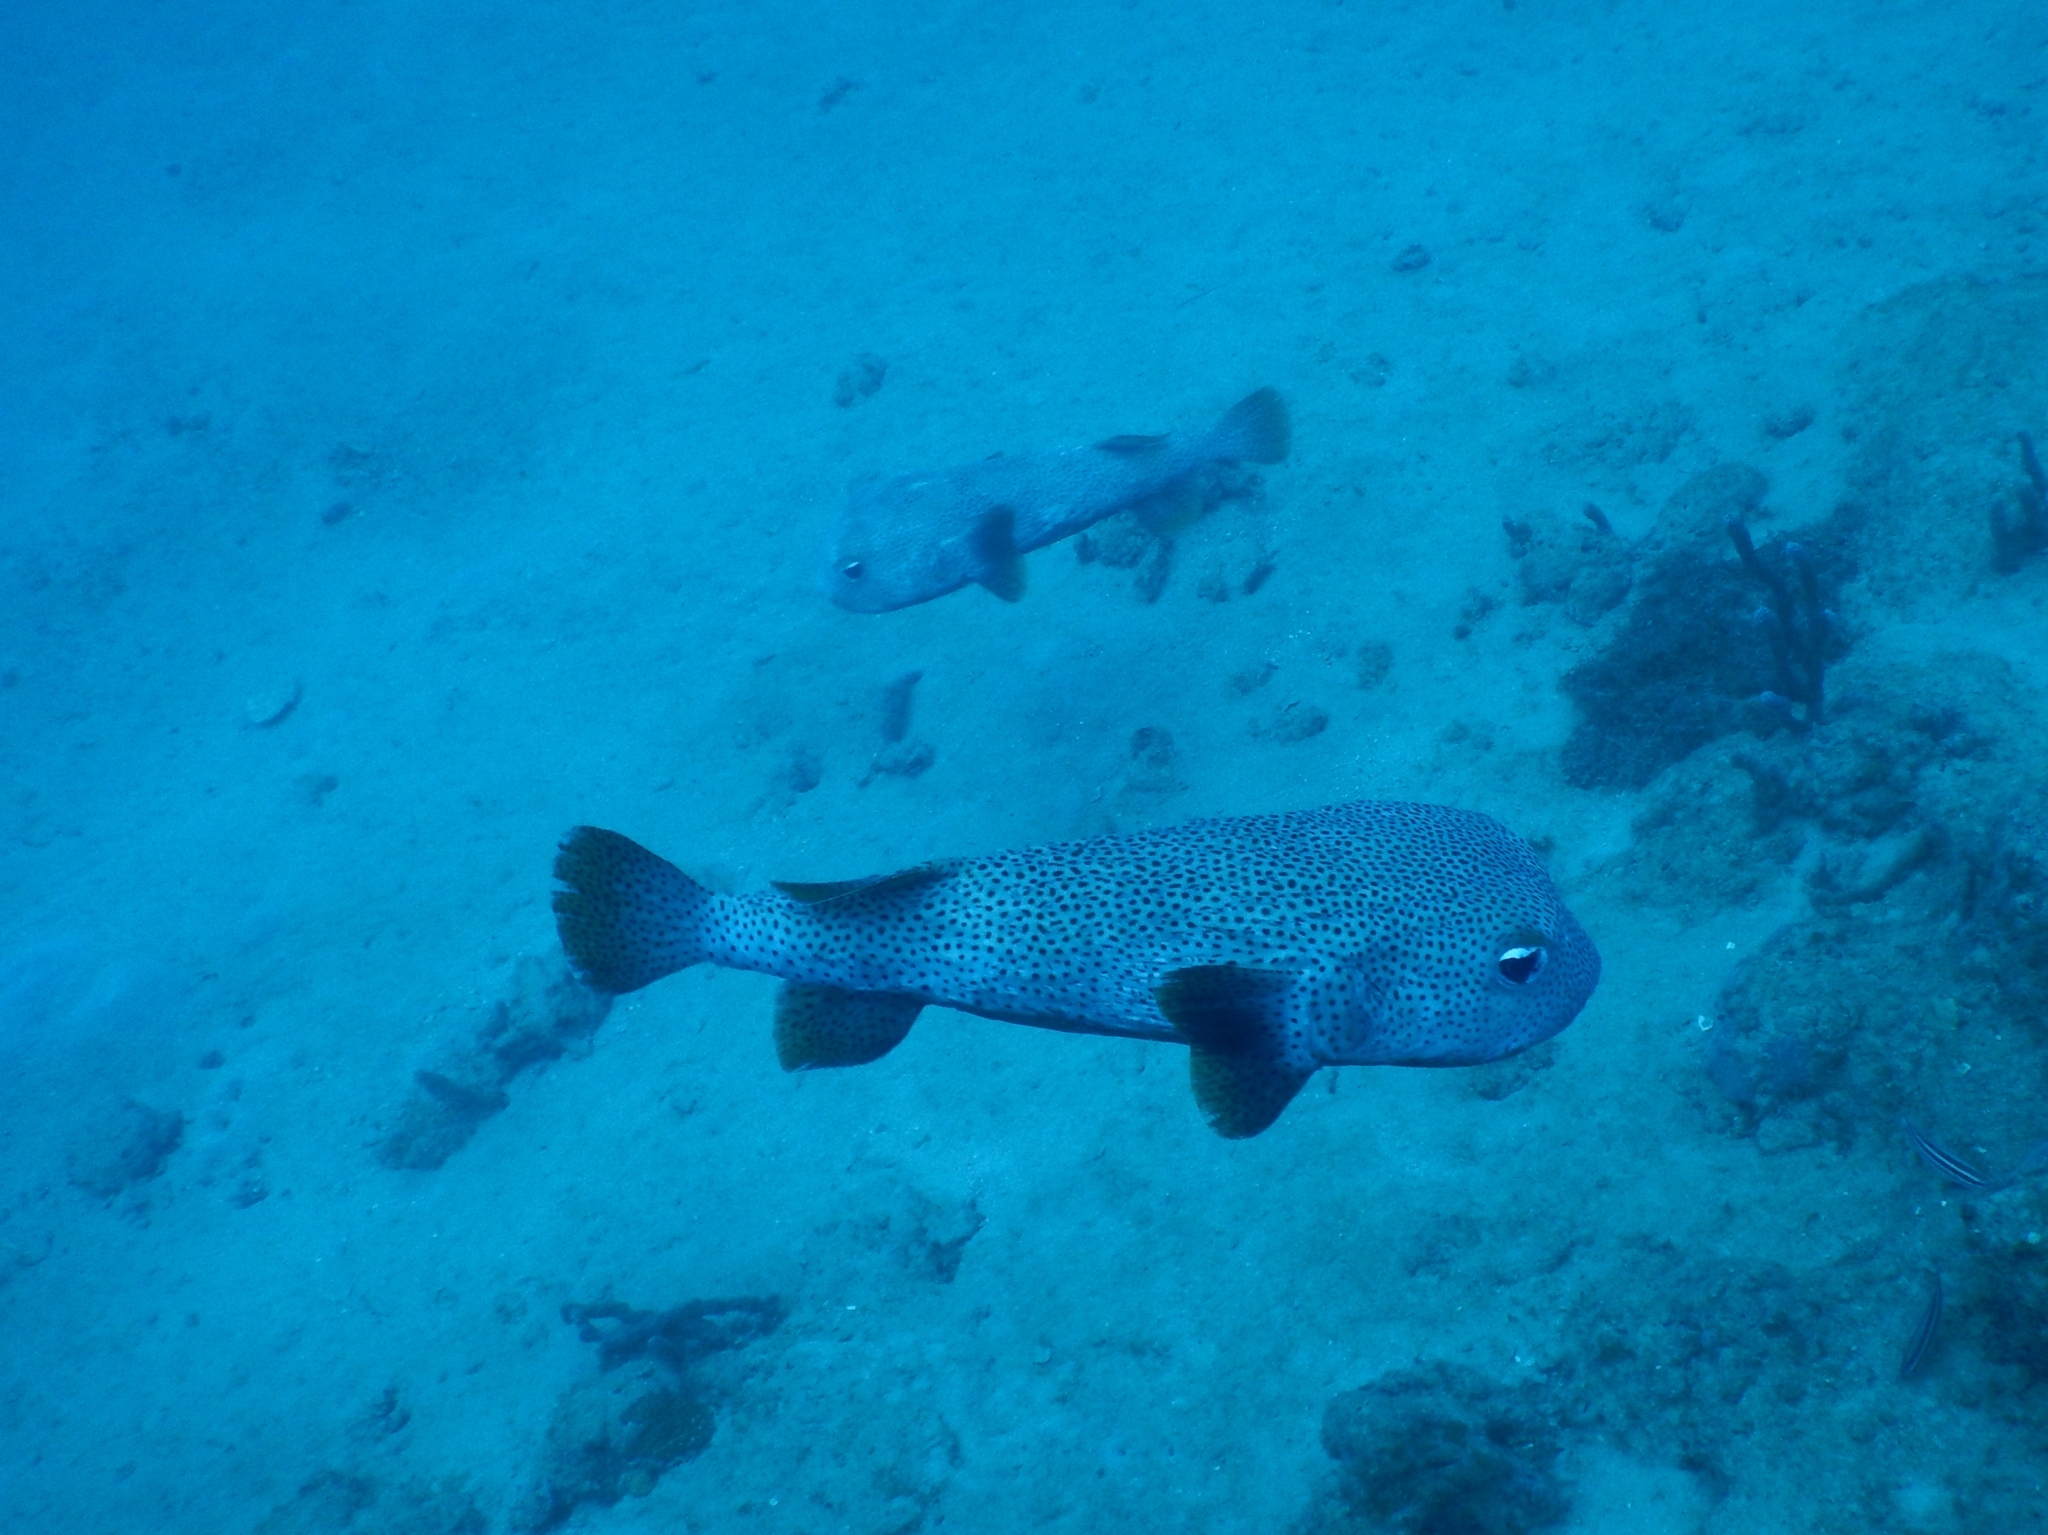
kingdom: Animalia
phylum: Chordata
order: Tetraodontiformes
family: Diodontidae
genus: Diodon
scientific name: Diodon hystrix
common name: Giant porcupinefish
